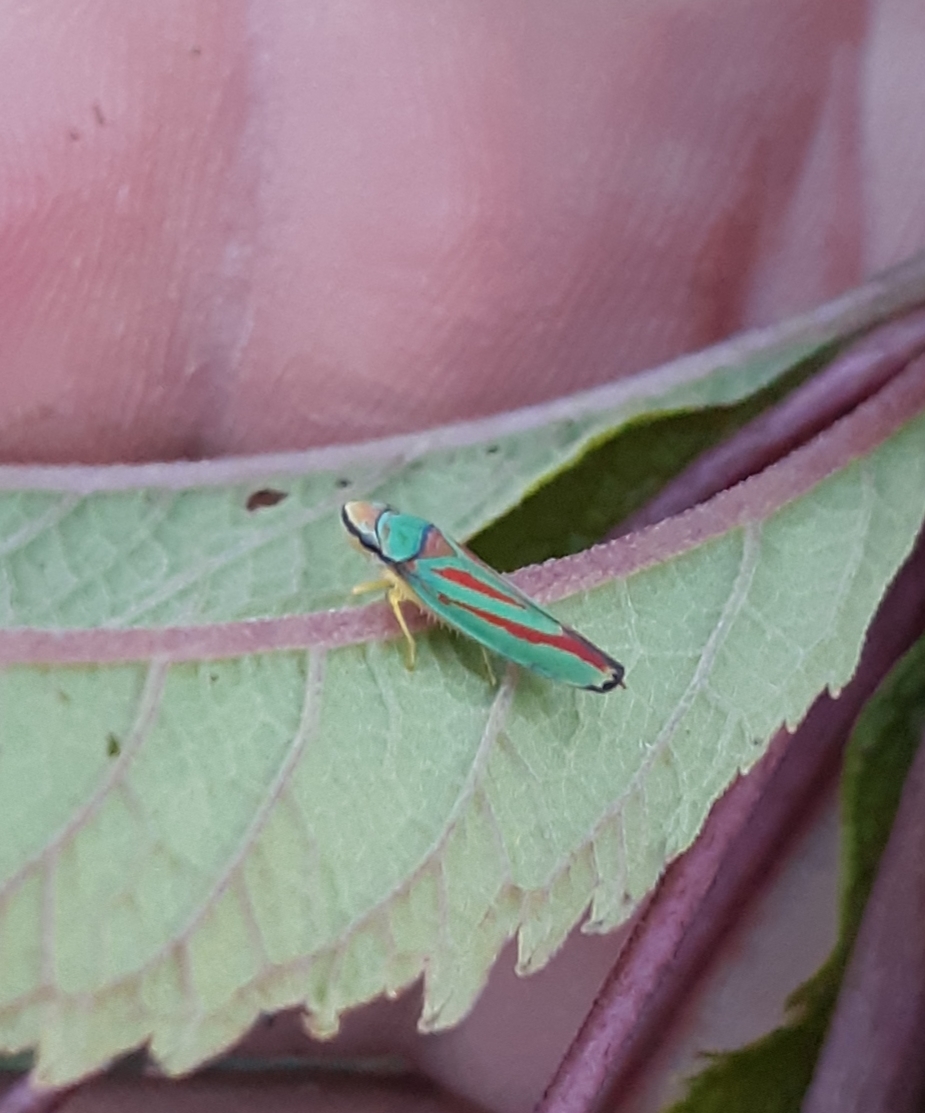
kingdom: Animalia
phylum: Arthropoda
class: Insecta
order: Hemiptera
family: Cicadellidae
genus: Graphocephala
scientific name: Graphocephala coccinea
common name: Candy-striped leafhopper
